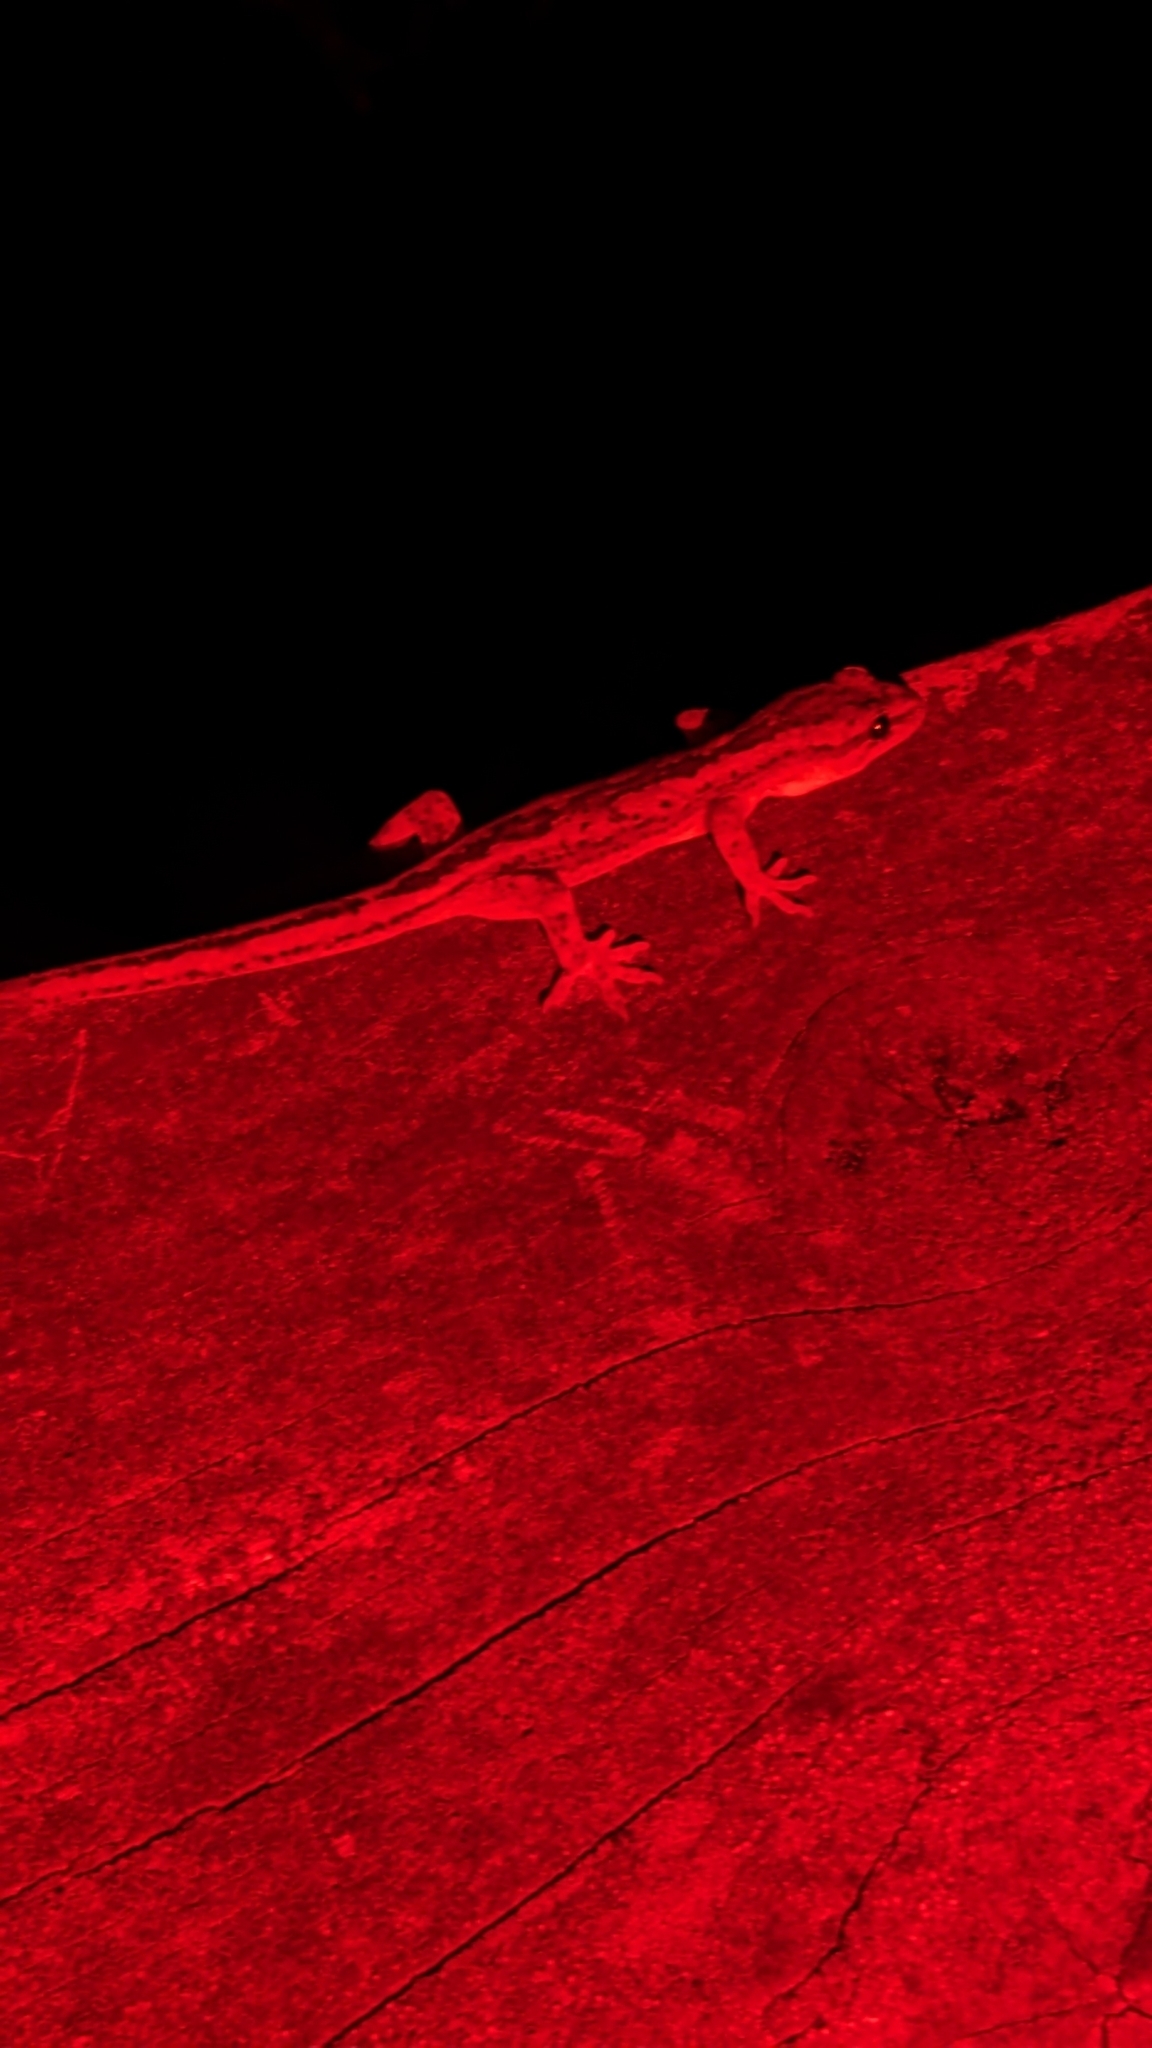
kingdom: Animalia
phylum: Chordata
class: Squamata
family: Diplodactylidae
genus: Woodworthia
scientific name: Woodworthia maculata
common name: Raukawa gecko
